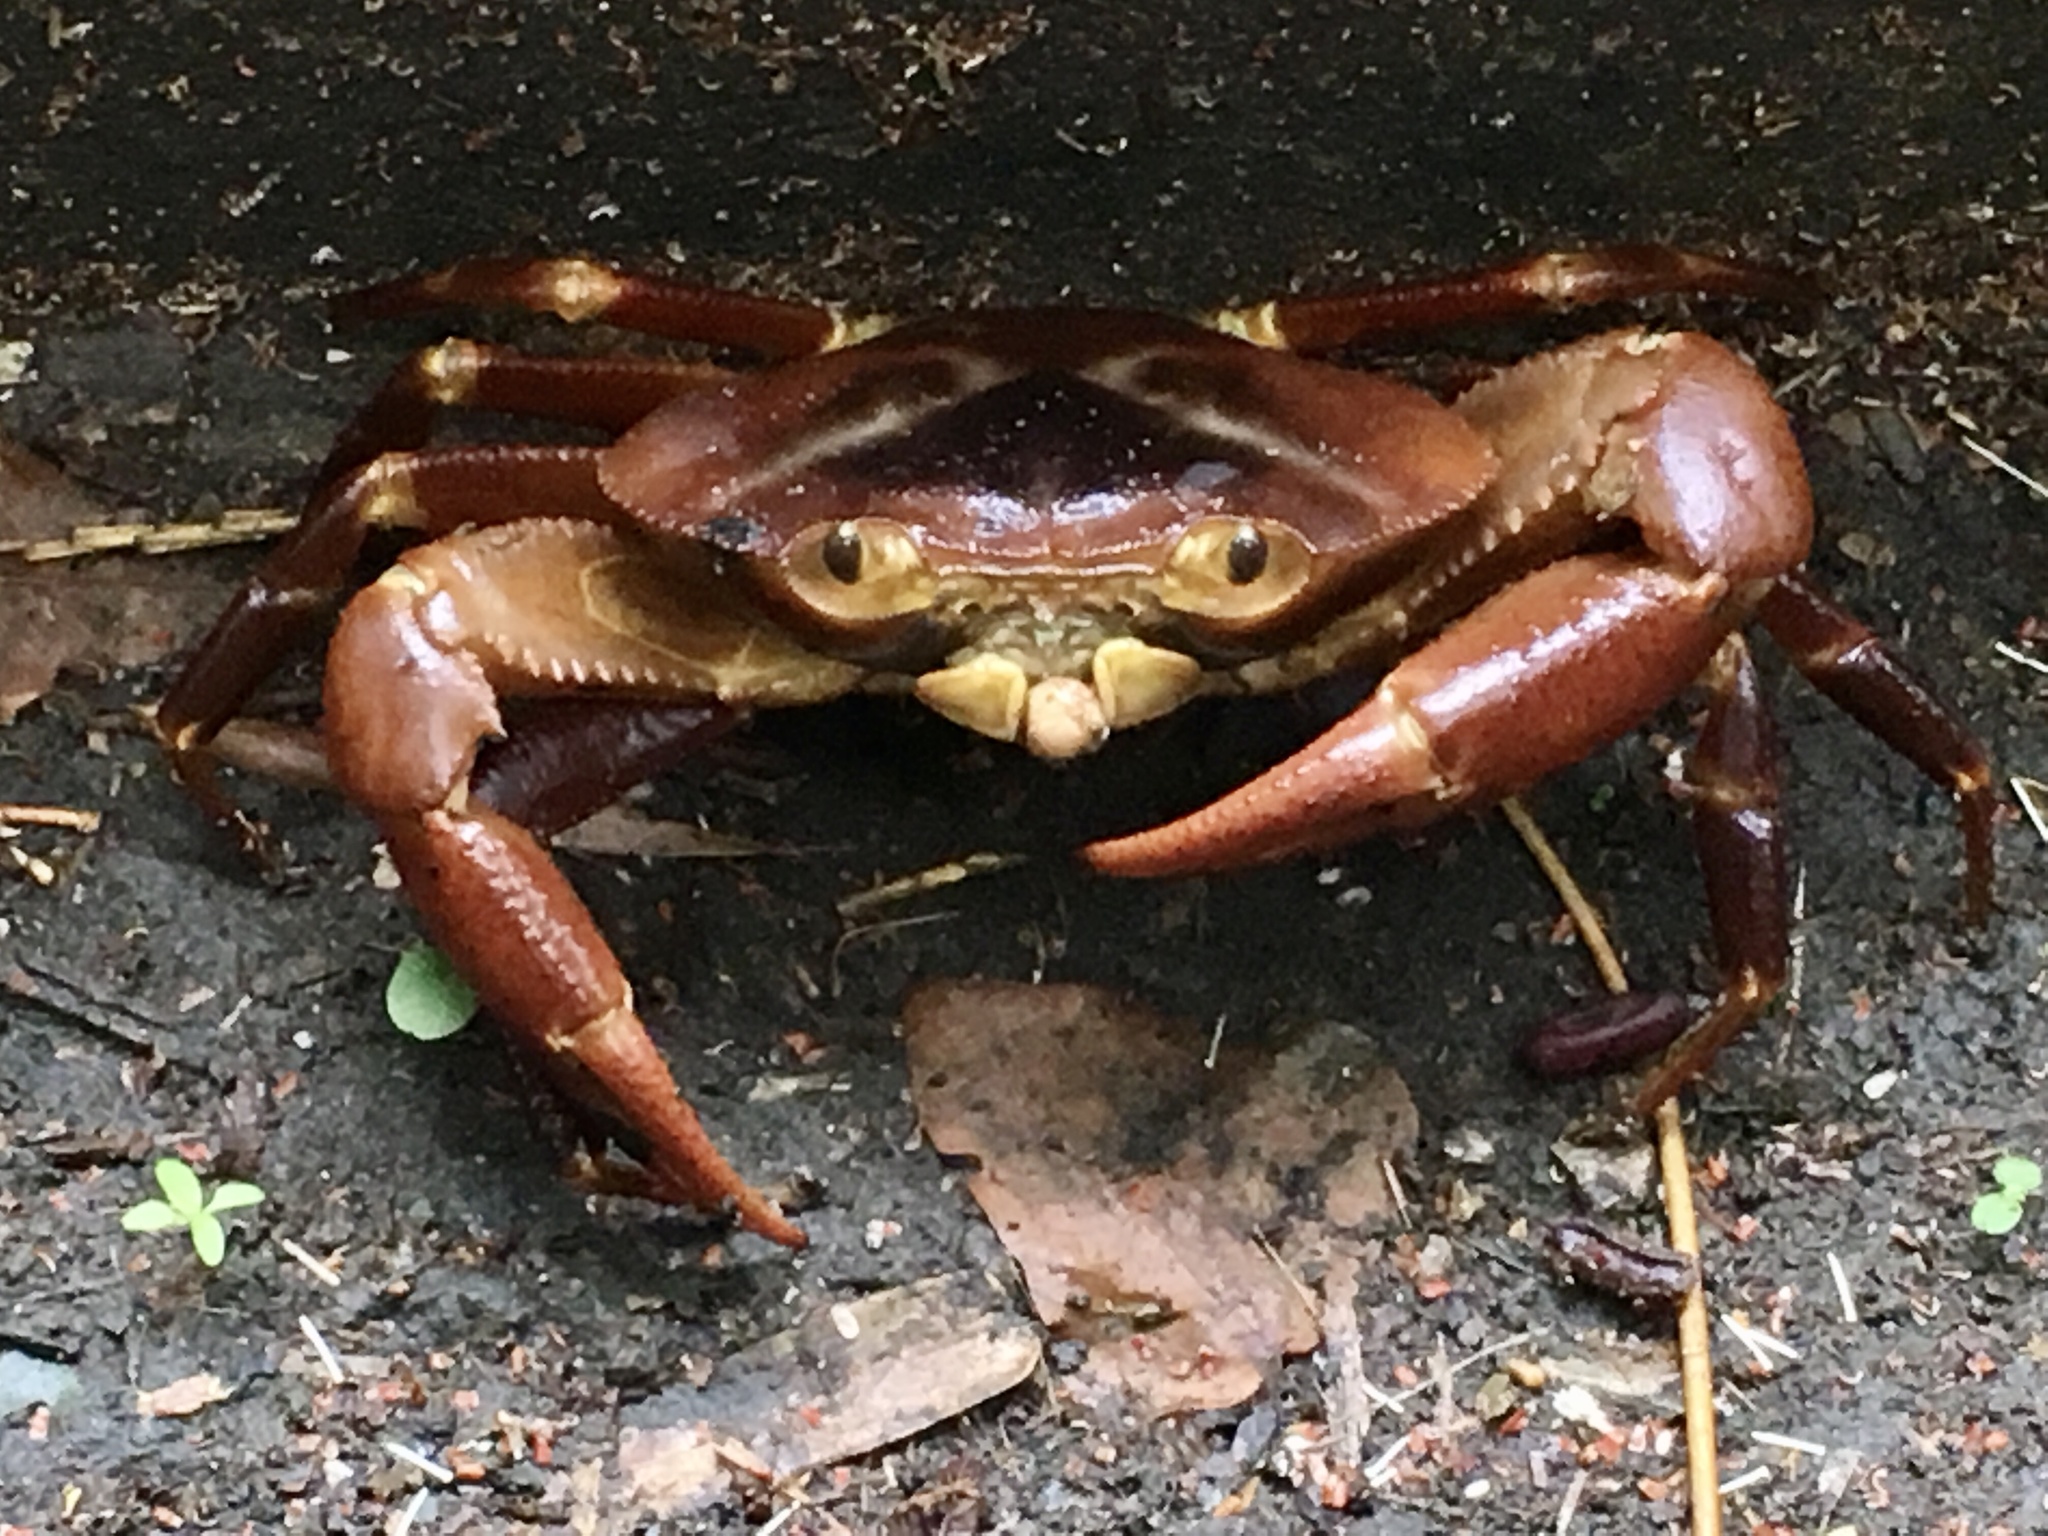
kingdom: Animalia
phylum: Arthropoda
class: Malacostraca
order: Decapoda
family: Pseudothelphusidae
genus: Rodriguezus
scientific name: Rodriguezus garmani
